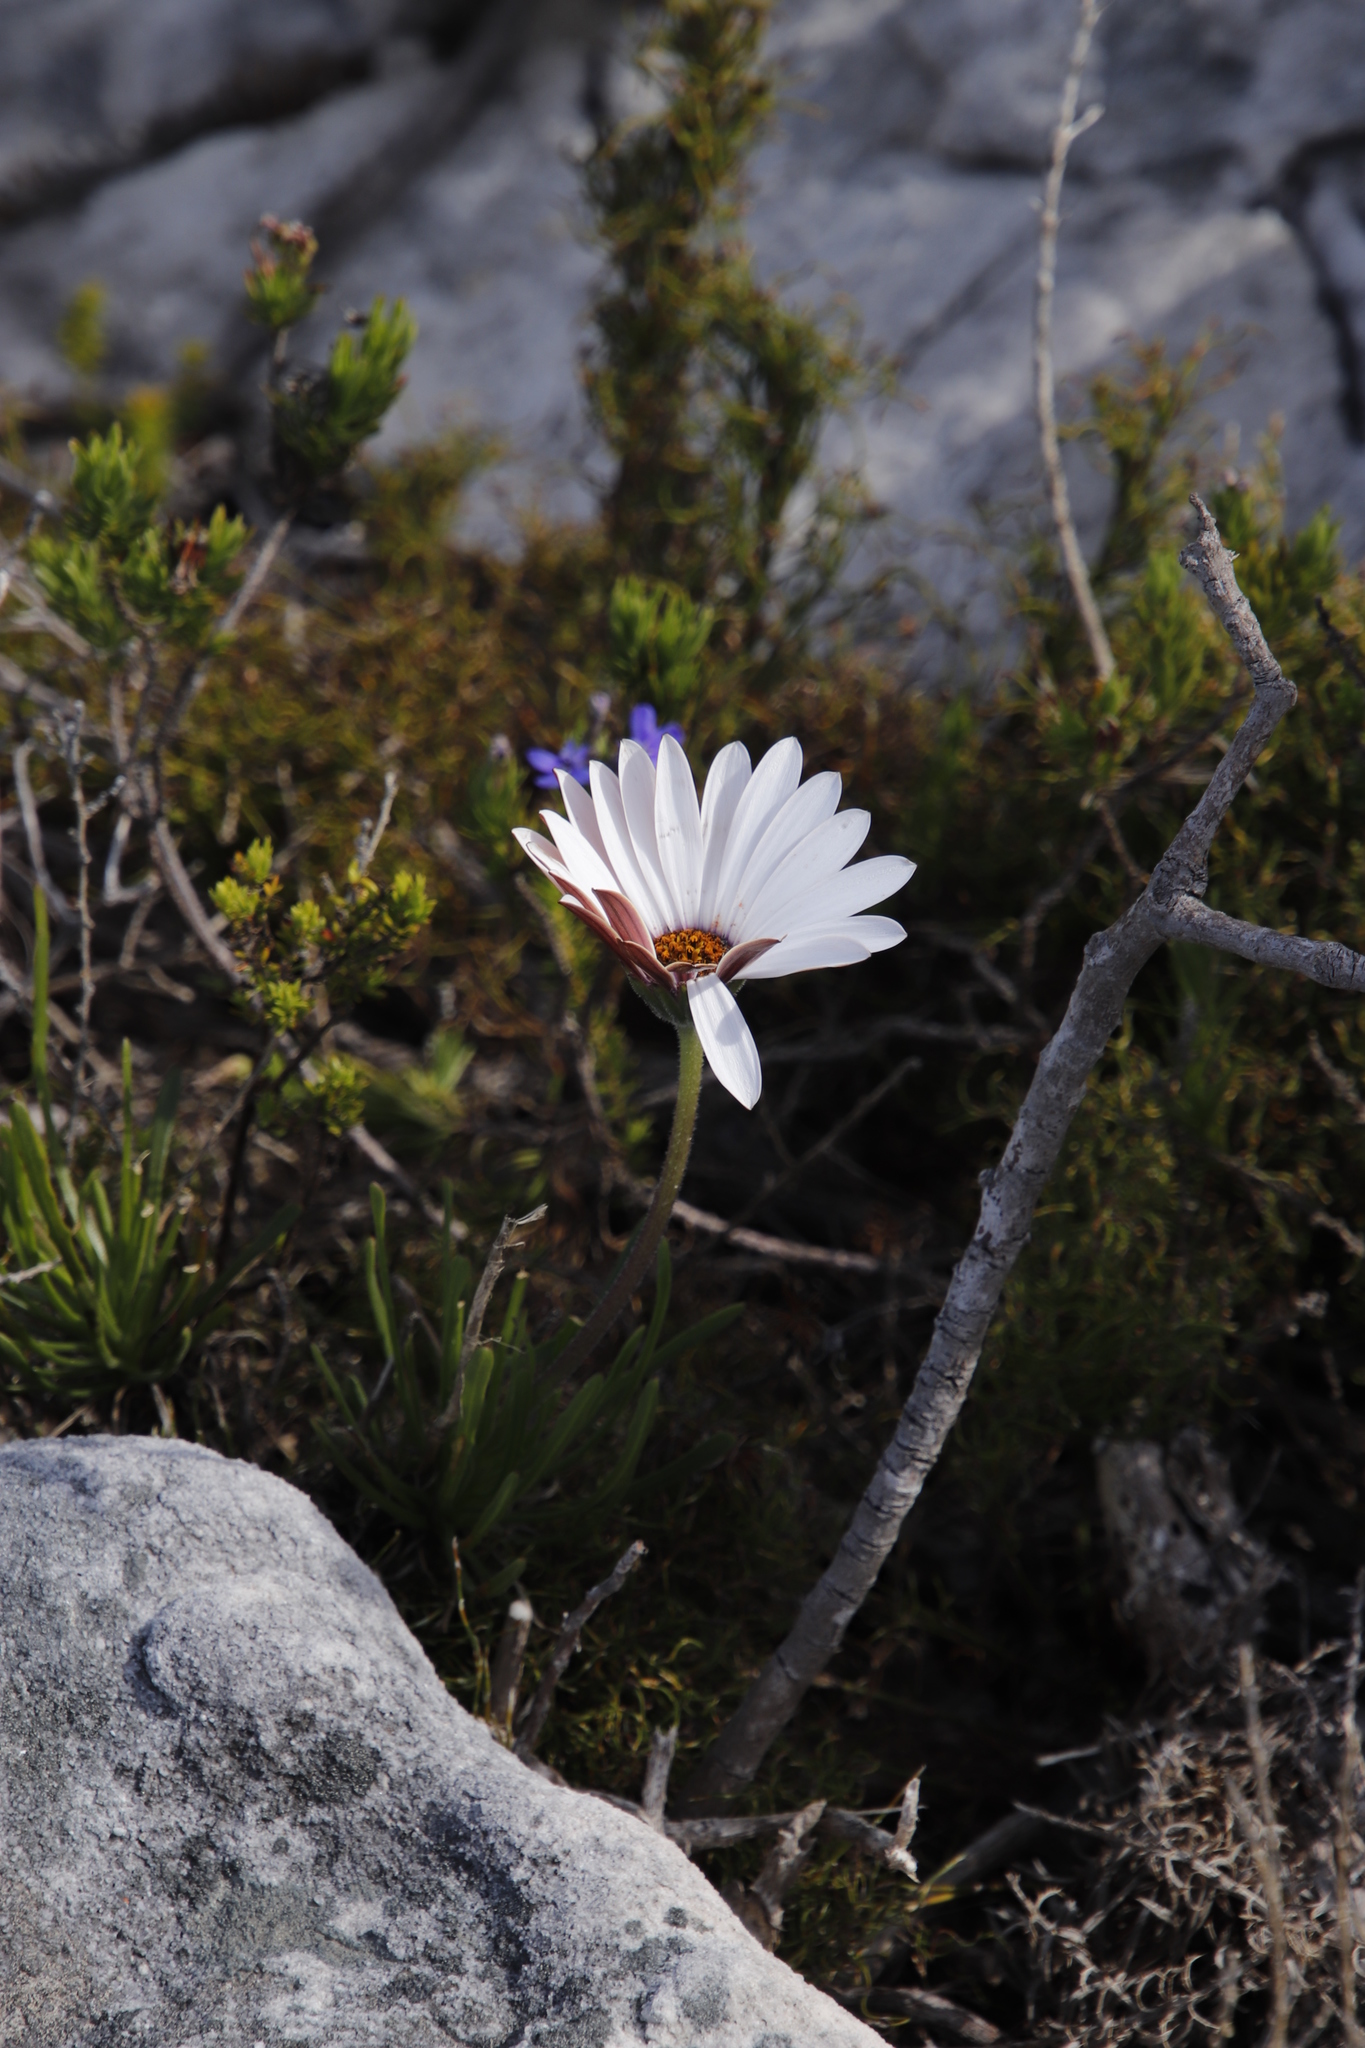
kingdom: Plantae
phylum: Tracheophyta
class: Magnoliopsida
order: Asterales
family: Asteraceae
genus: Dimorphotheca
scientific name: Dimorphotheca nudicaulis
